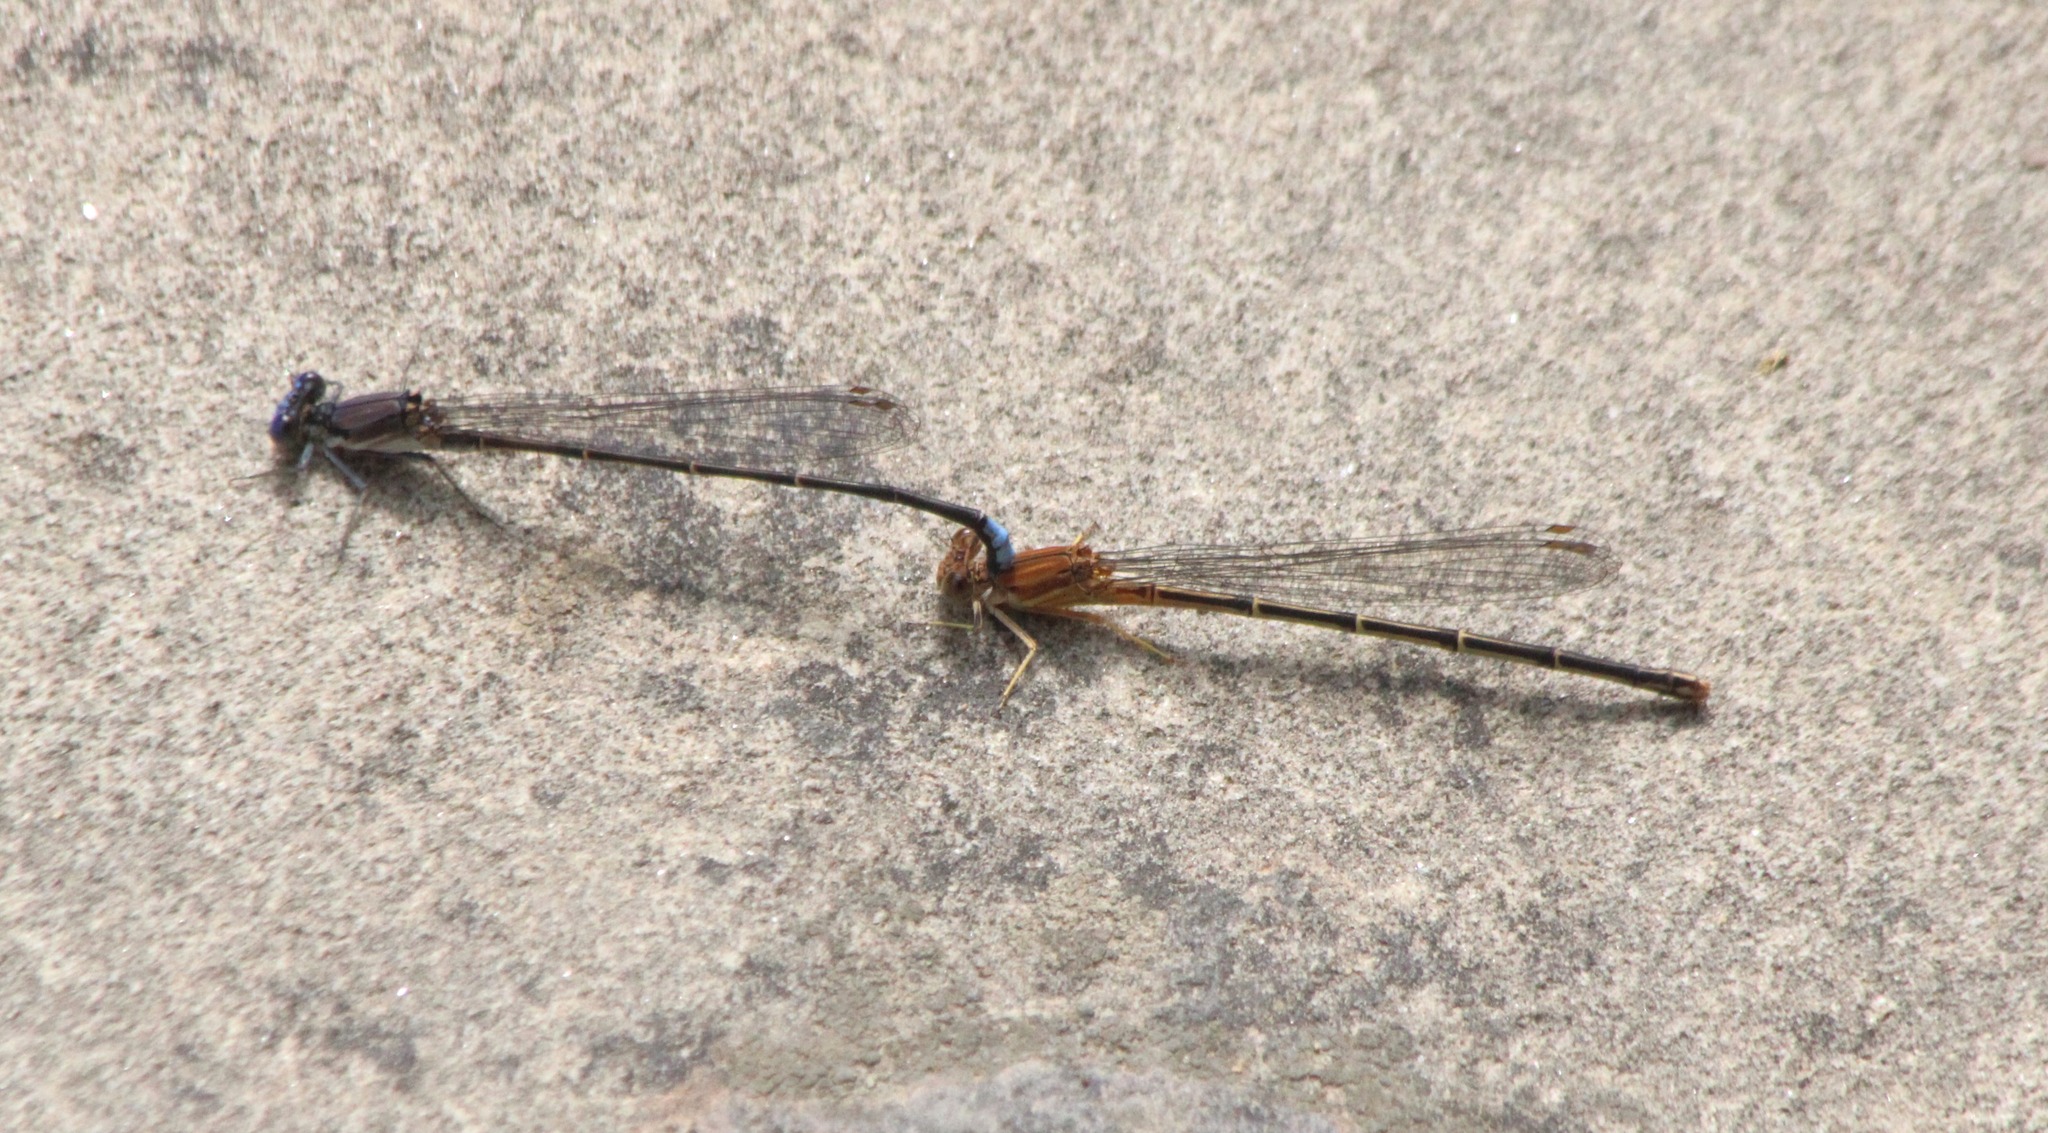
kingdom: Animalia
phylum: Arthropoda
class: Insecta
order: Odonata
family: Coenagrionidae
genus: Argia
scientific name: Argia apicalis
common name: Blue-fronted dancer
